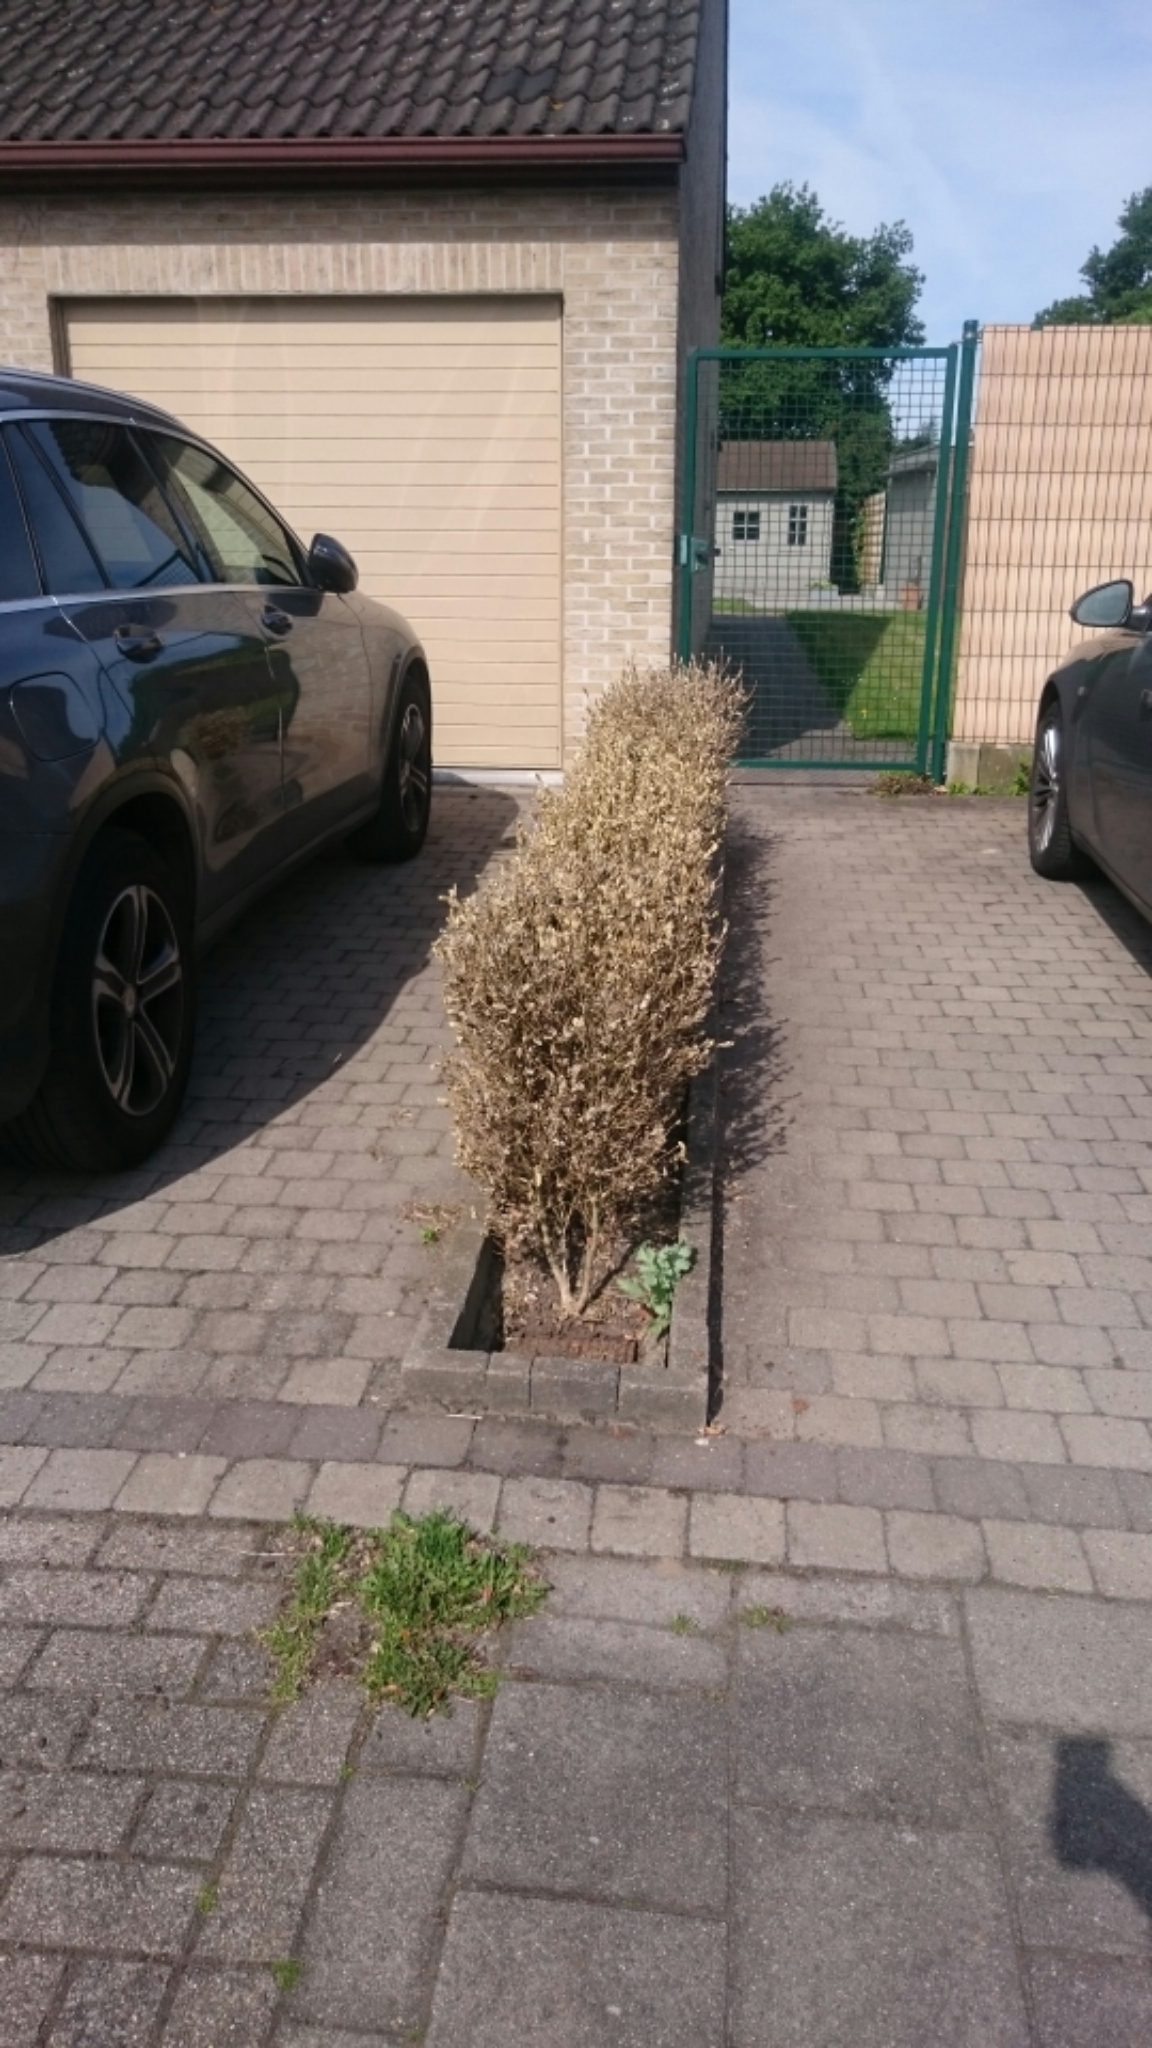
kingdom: Animalia
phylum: Arthropoda
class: Insecta
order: Lepidoptera
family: Crambidae
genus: Cydalima
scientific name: Cydalima perspectalis
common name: Box tree moth
